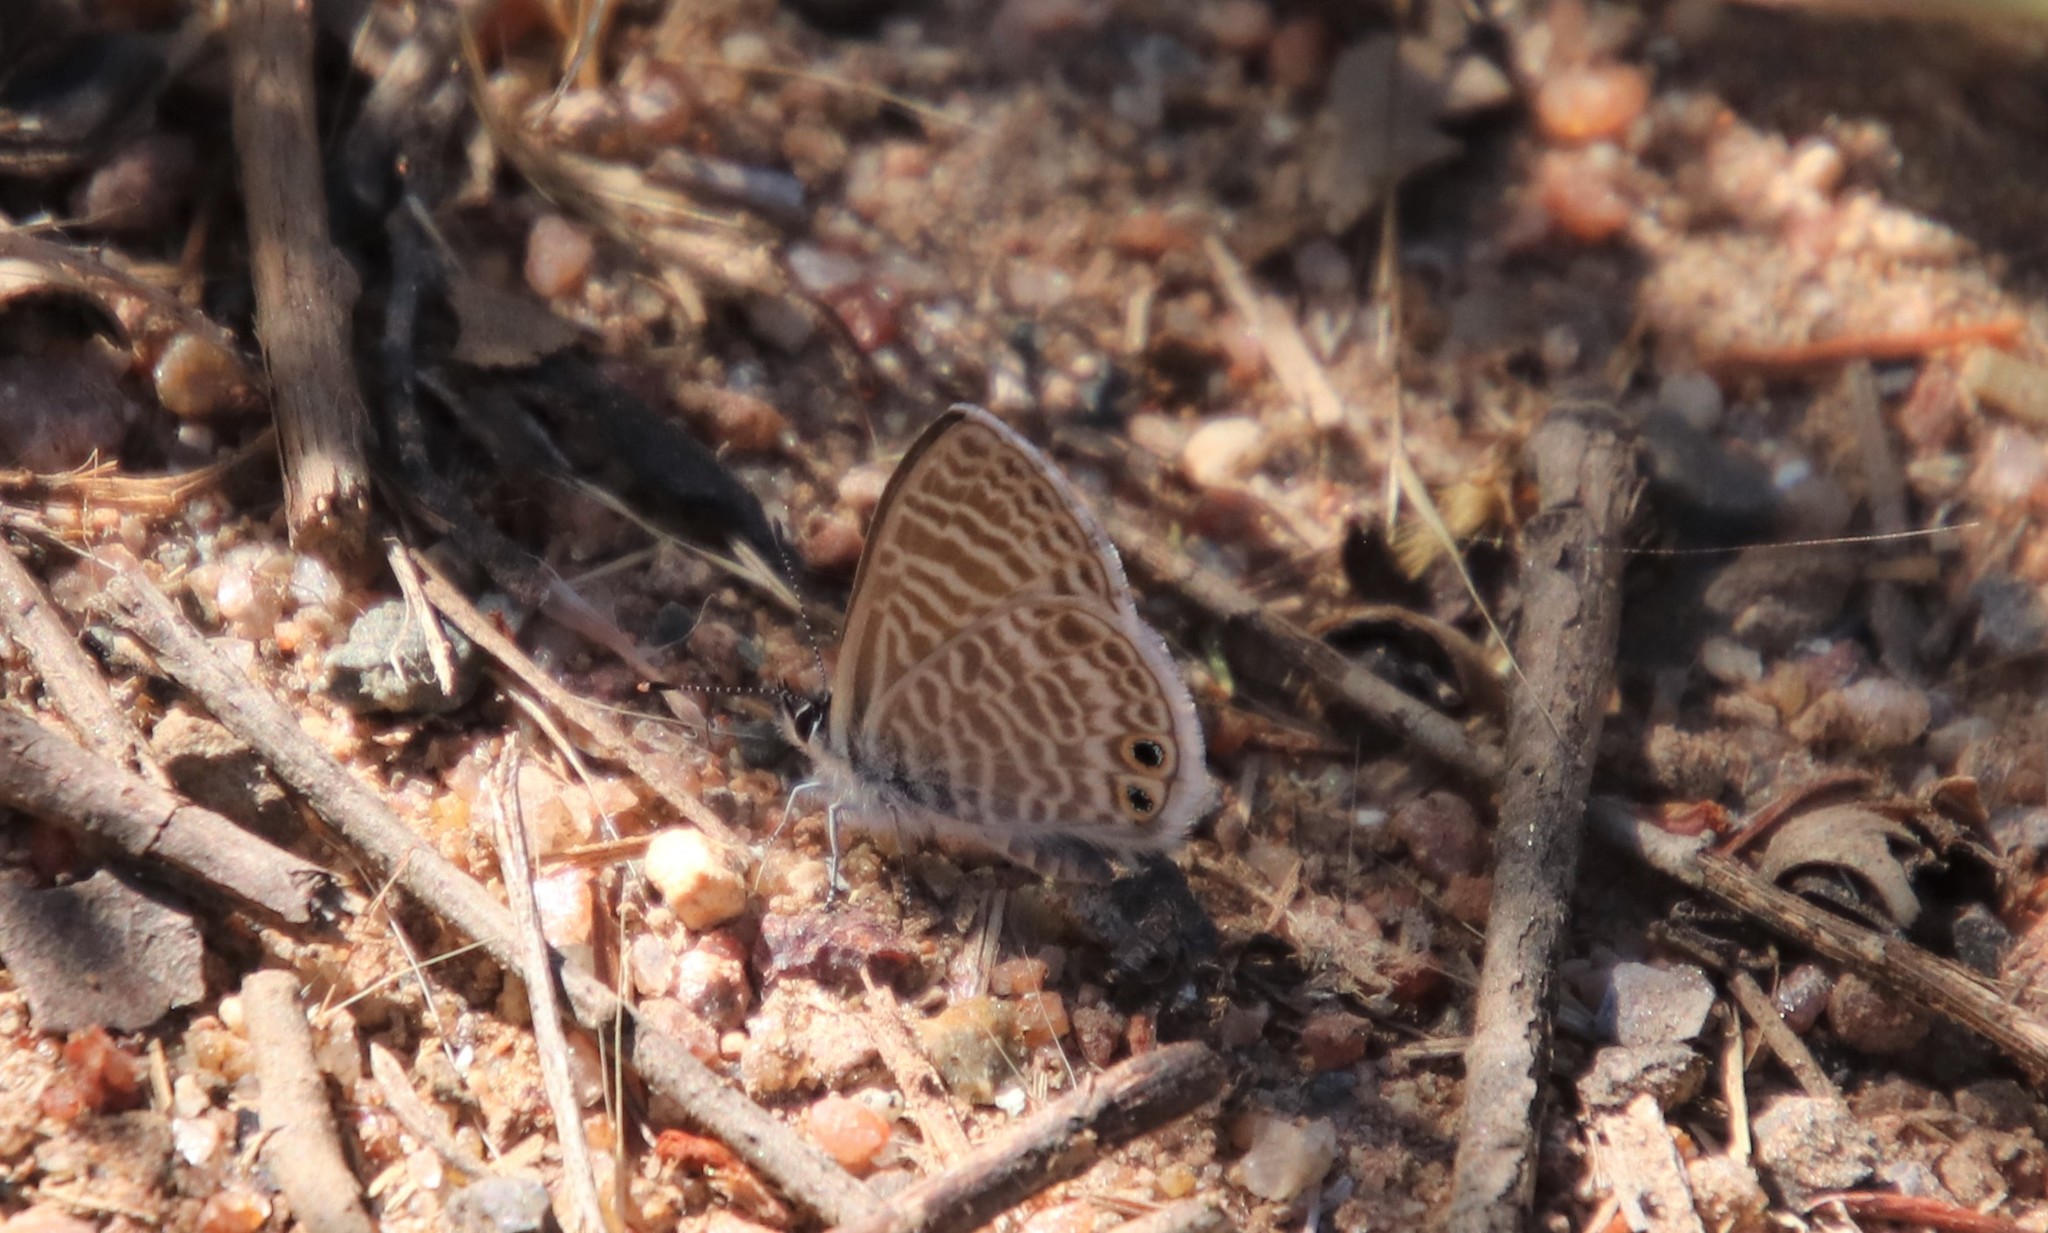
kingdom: Animalia
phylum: Arthropoda
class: Insecta
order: Lepidoptera
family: Lycaenidae
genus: Leptotes
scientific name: Leptotes marina
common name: Marine blue
